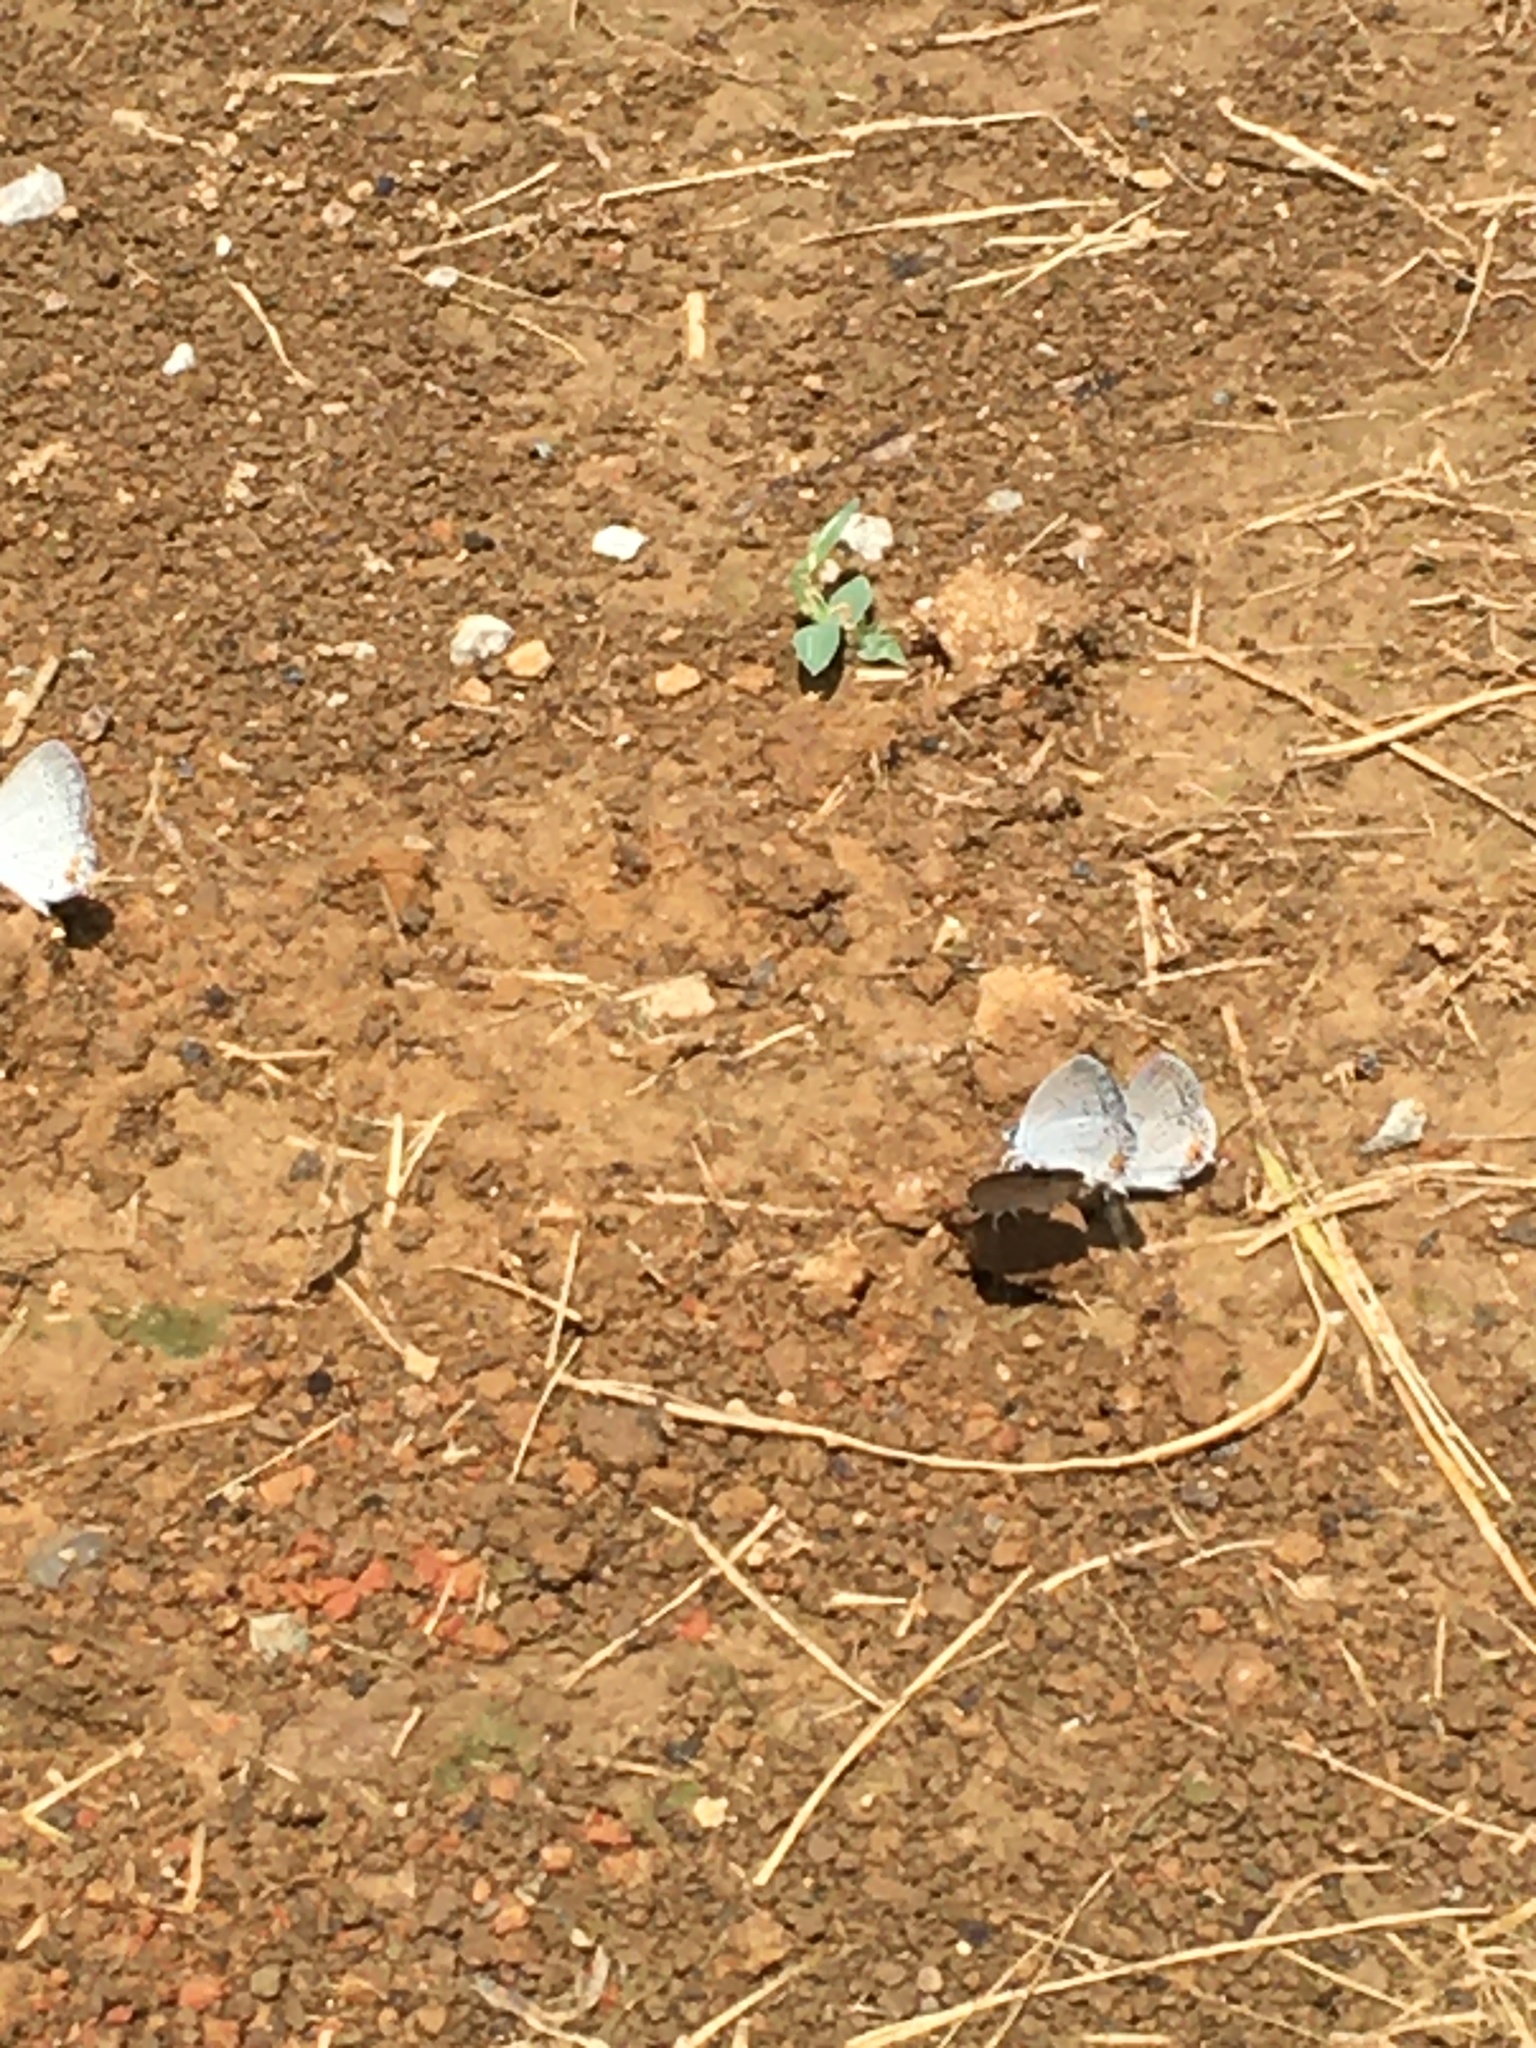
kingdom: Animalia
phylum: Arthropoda
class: Insecta
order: Lepidoptera
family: Lycaenidae
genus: Elkalyce
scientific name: Elkalyce comyntas
